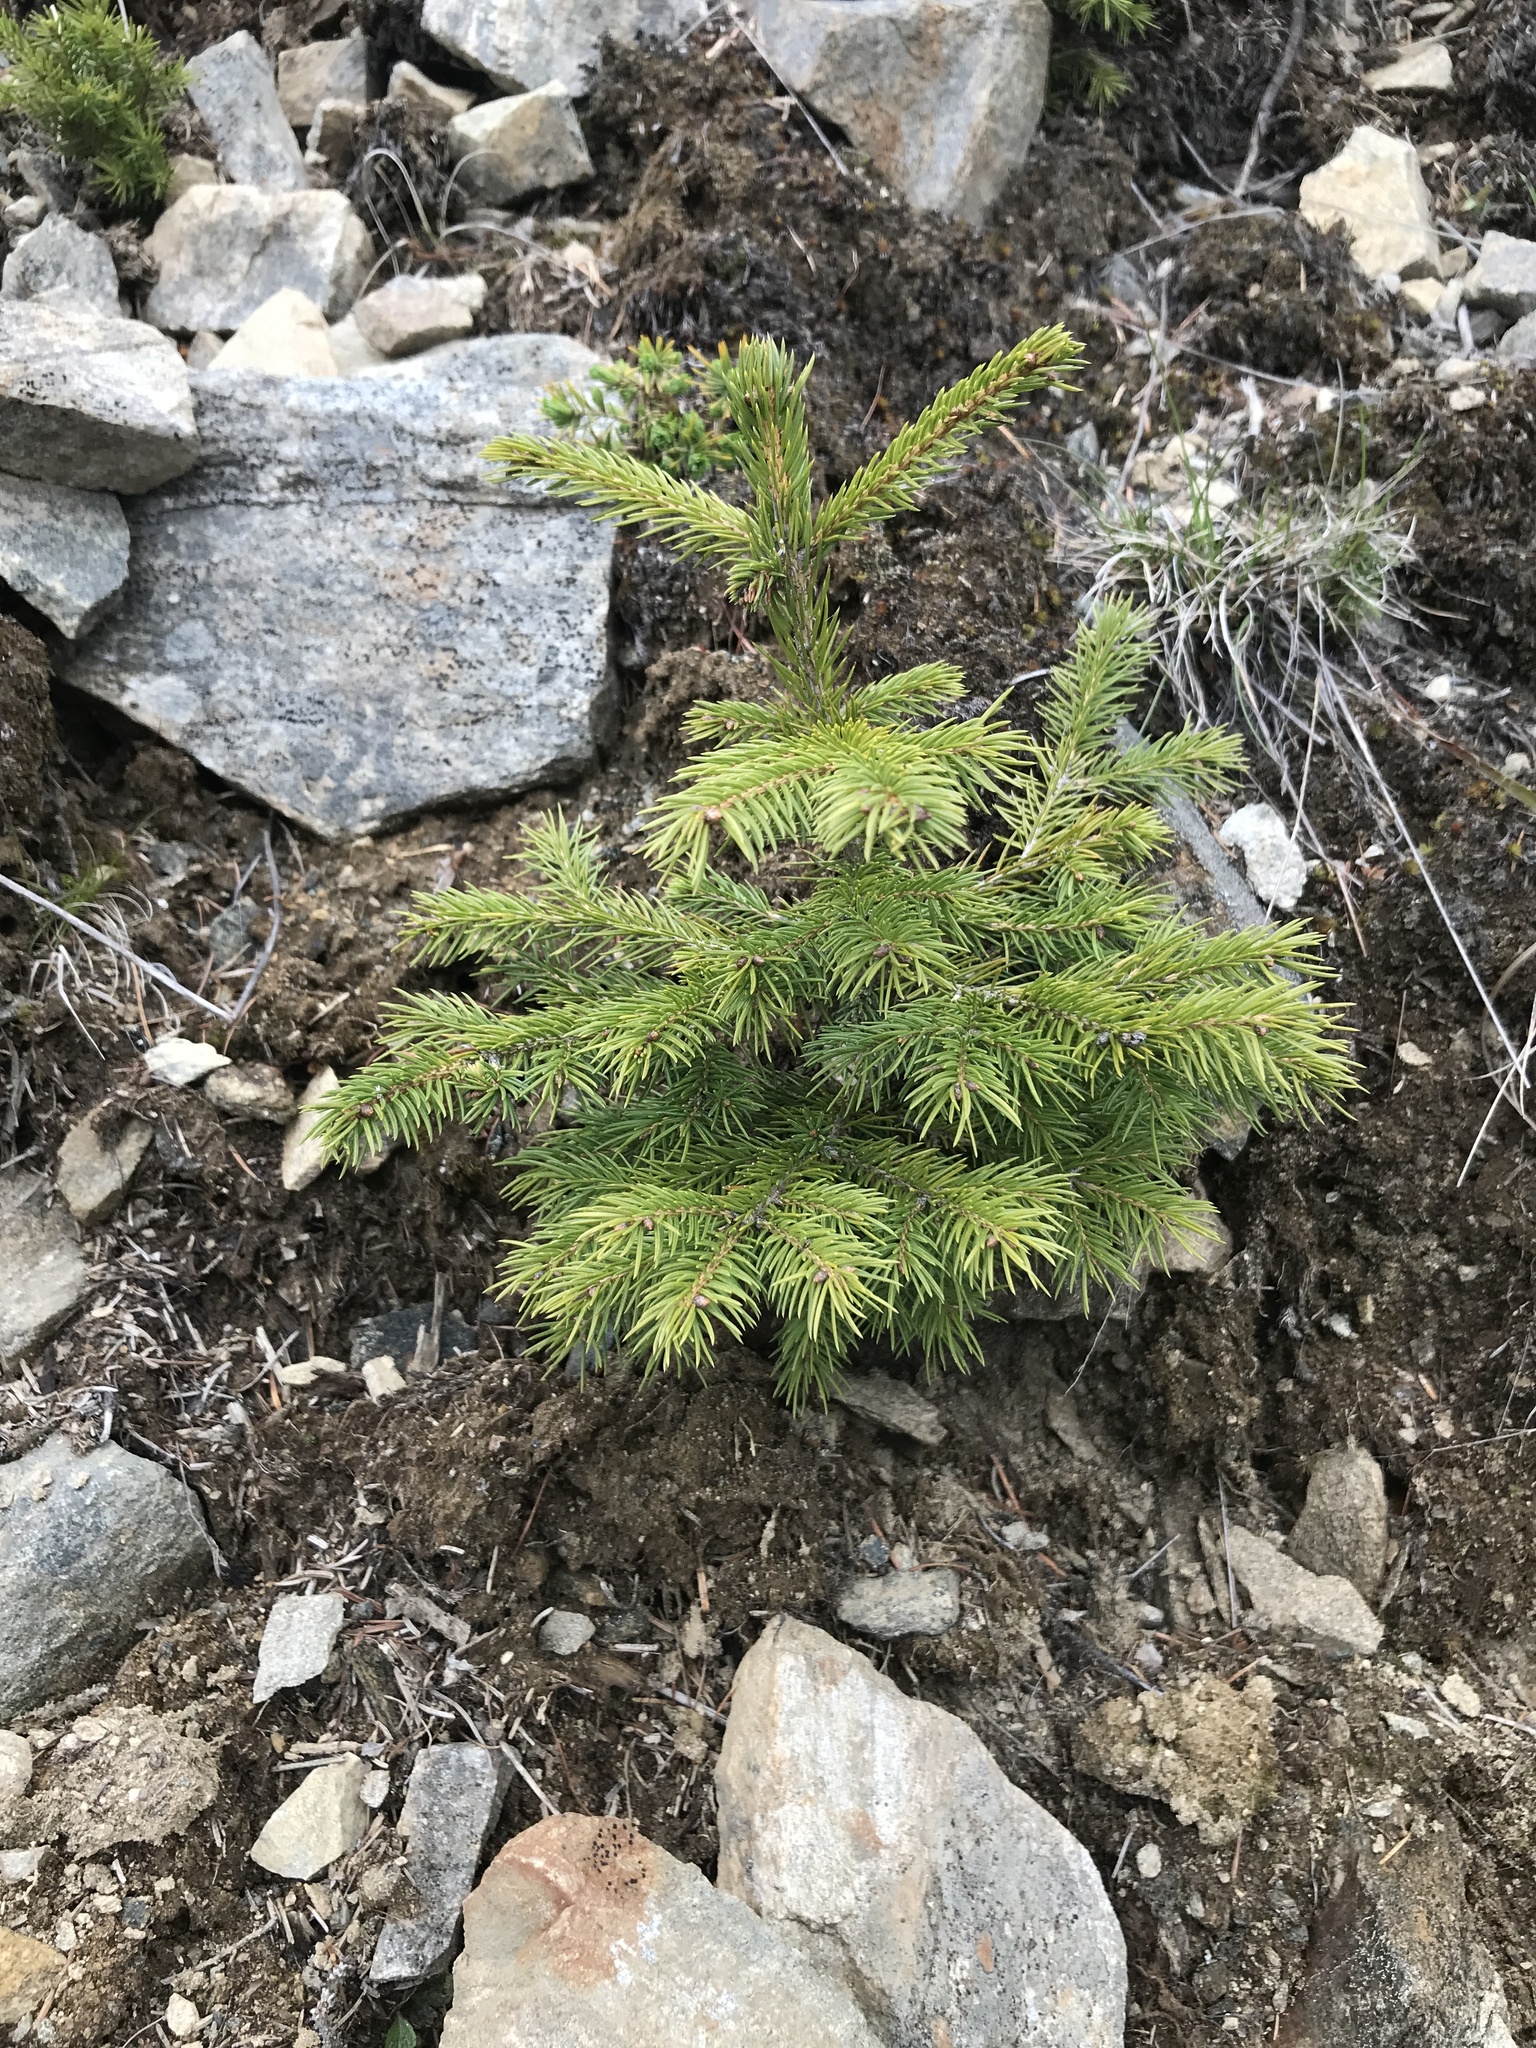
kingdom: Plantae
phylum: Tracheophyta
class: Pinopsida
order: Pinales
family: Pinaceae
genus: Picea
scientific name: Picea abies
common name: Norway spruce
